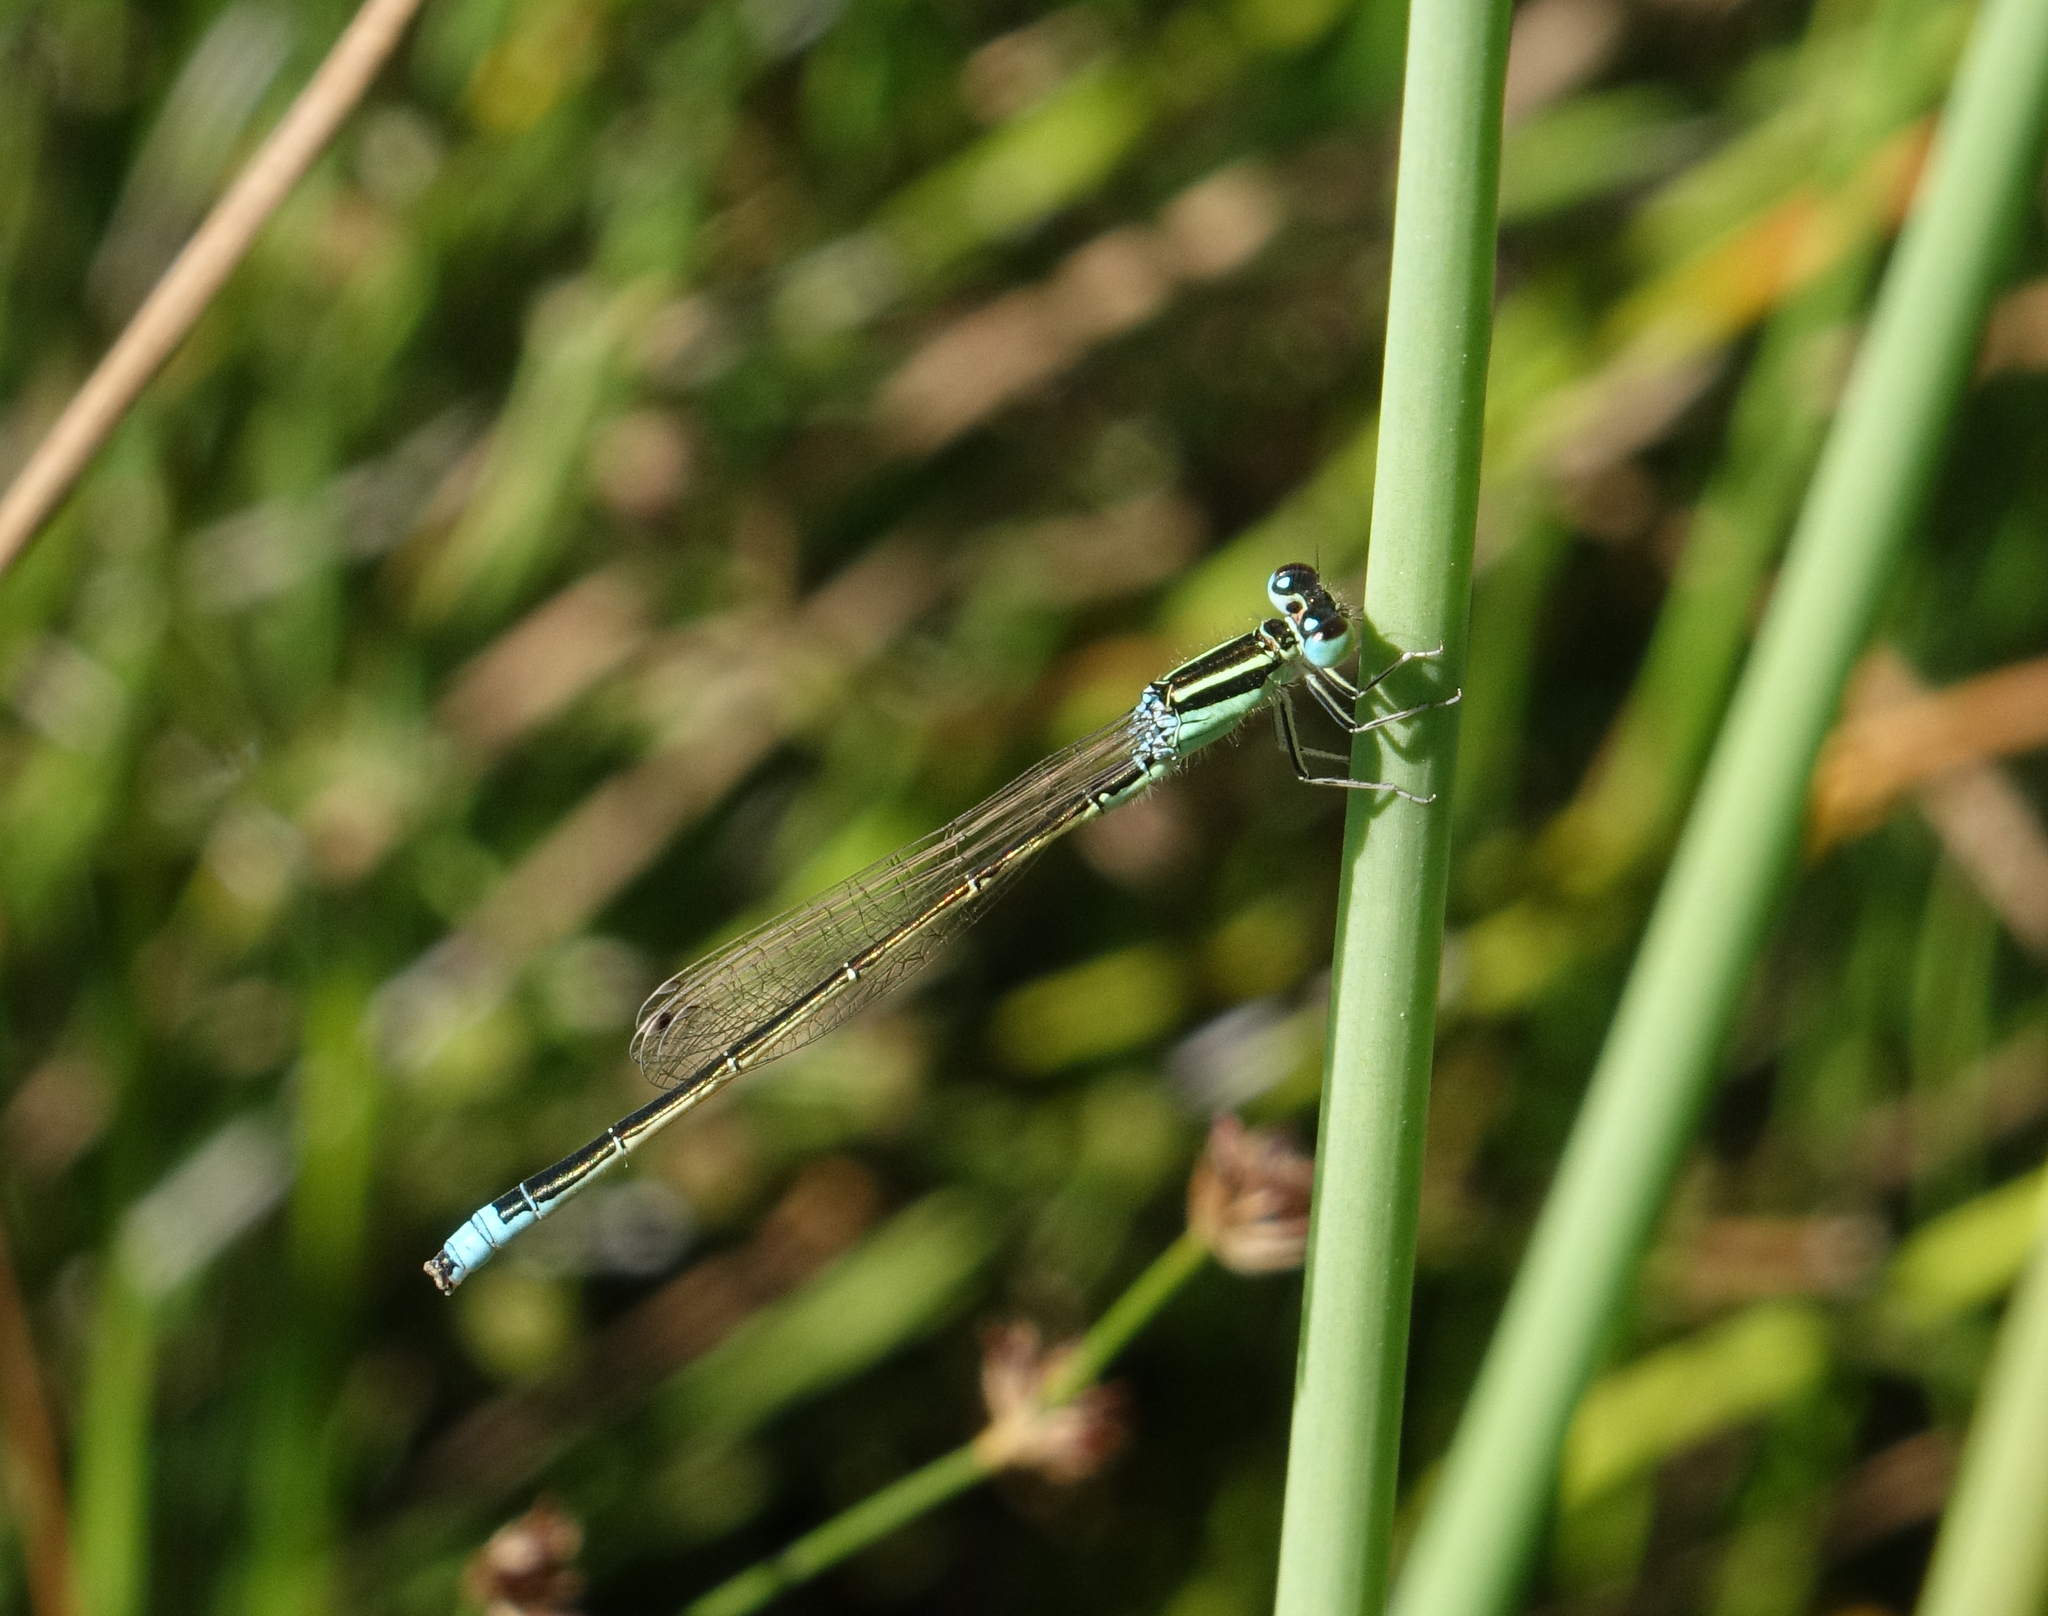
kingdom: Animalia
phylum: Arthropoda
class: Insecta
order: Odonata
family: Coenagrionidae
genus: Ischnura
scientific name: Ischnura pumilio
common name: Scarce blue-tailed damselfly
